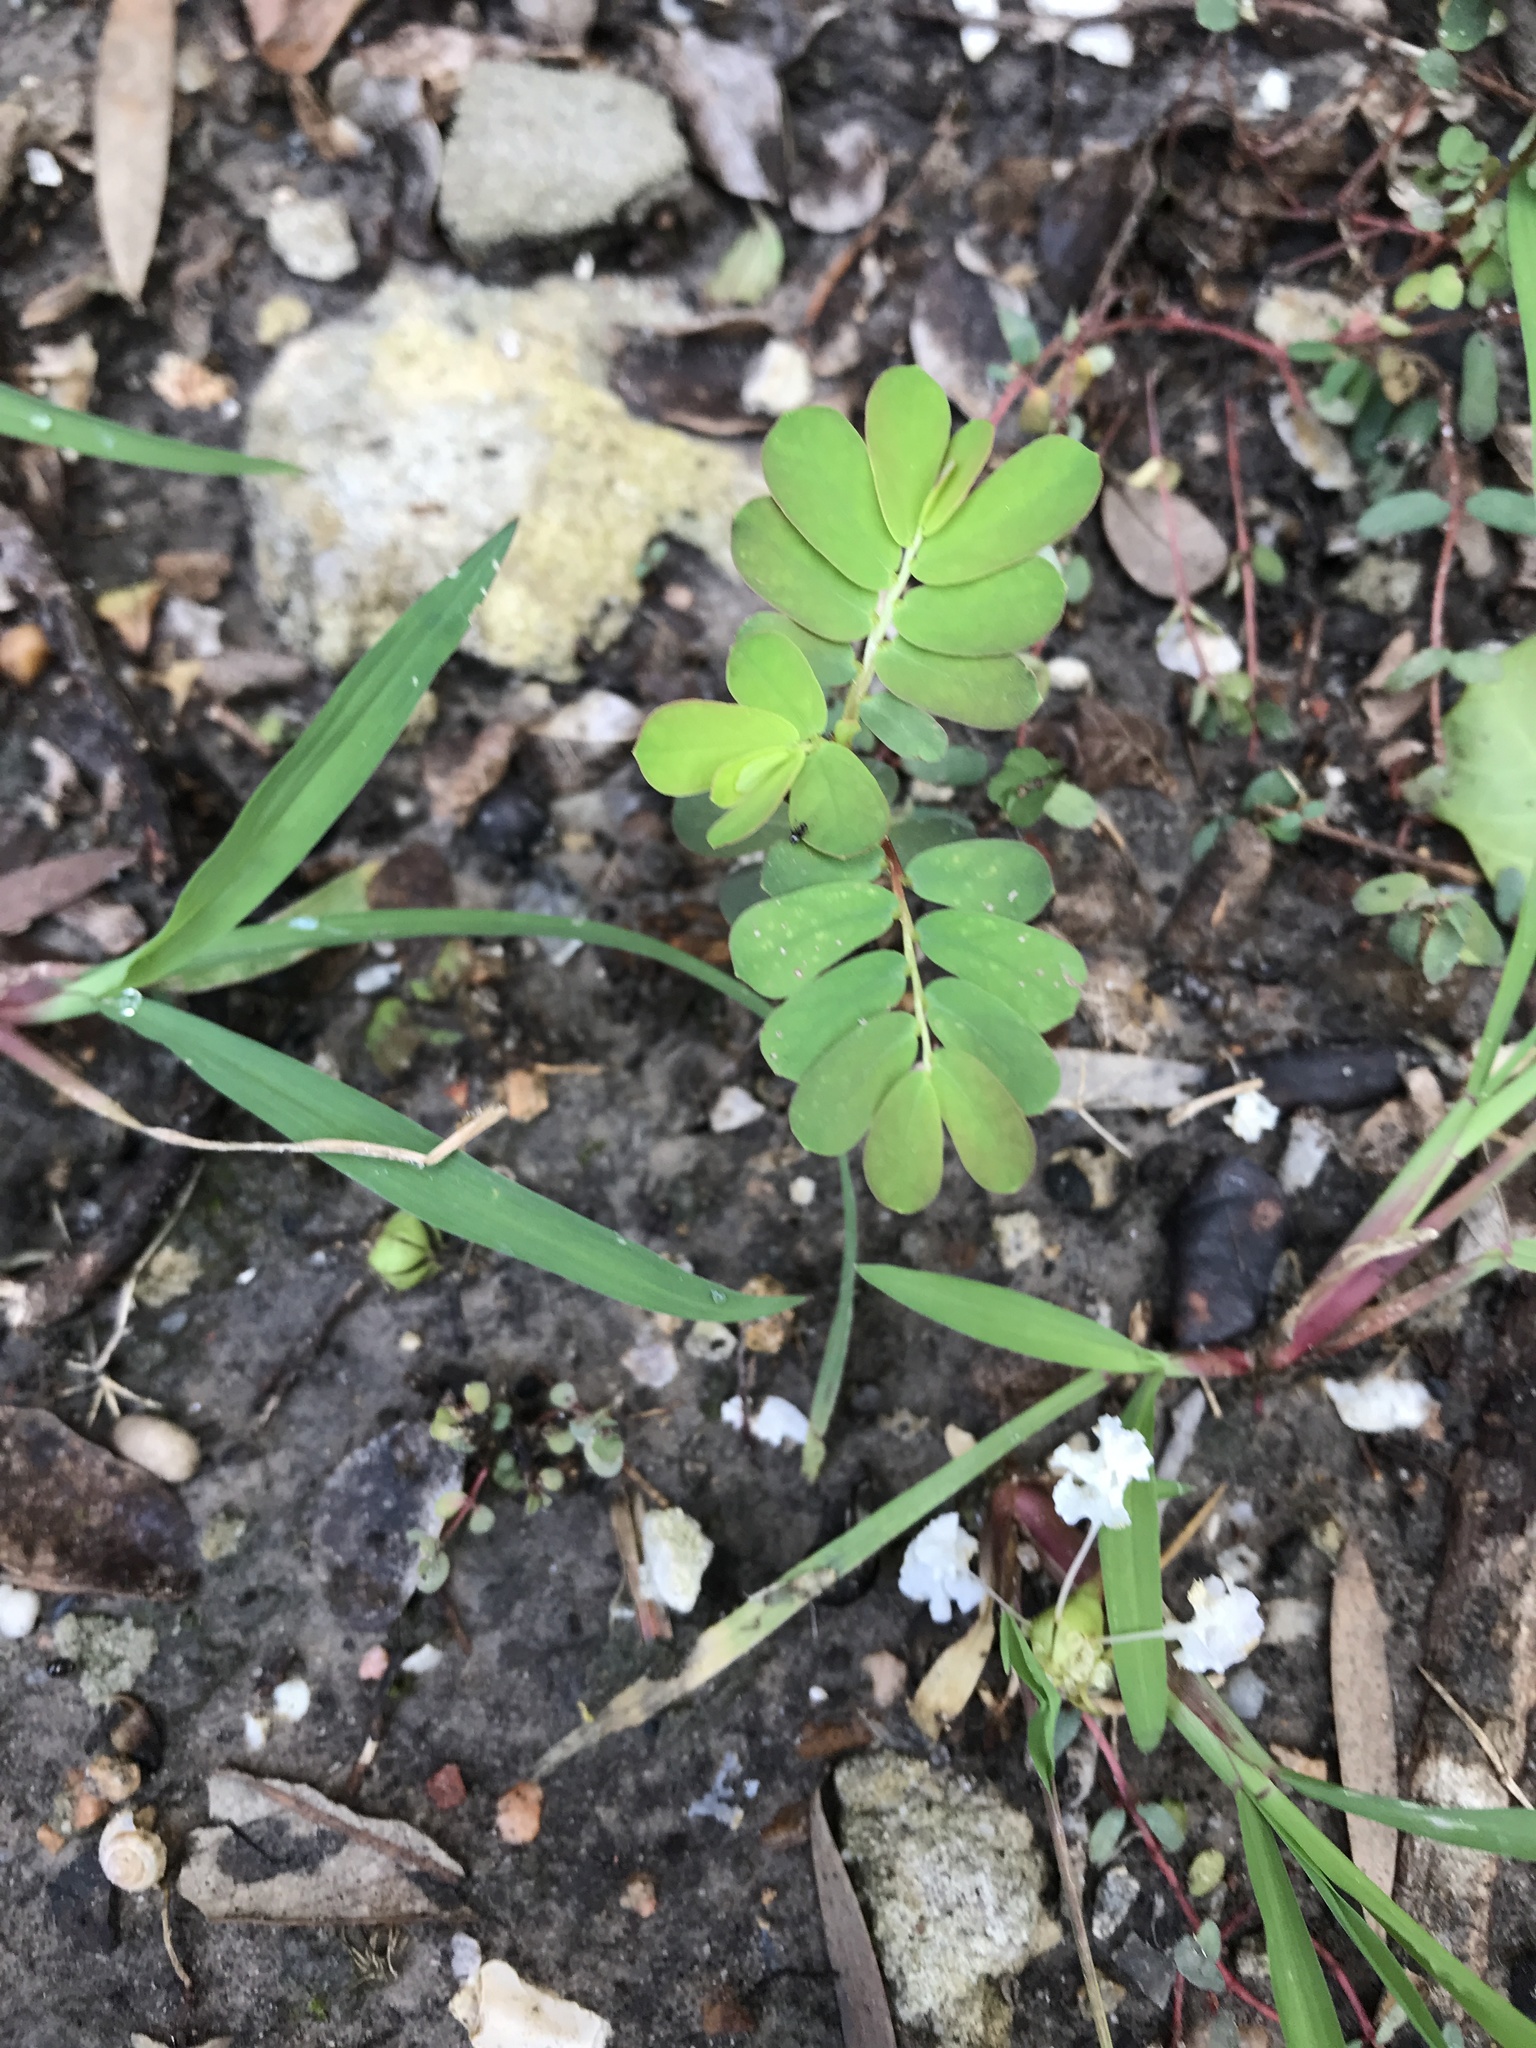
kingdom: Plantae
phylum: Tracheophyta
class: Magnoliopsida
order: Malpighiales
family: Phyllanthaceae
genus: Phyllanthus
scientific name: Phyllanthus urinaria
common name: Chamber bitter
